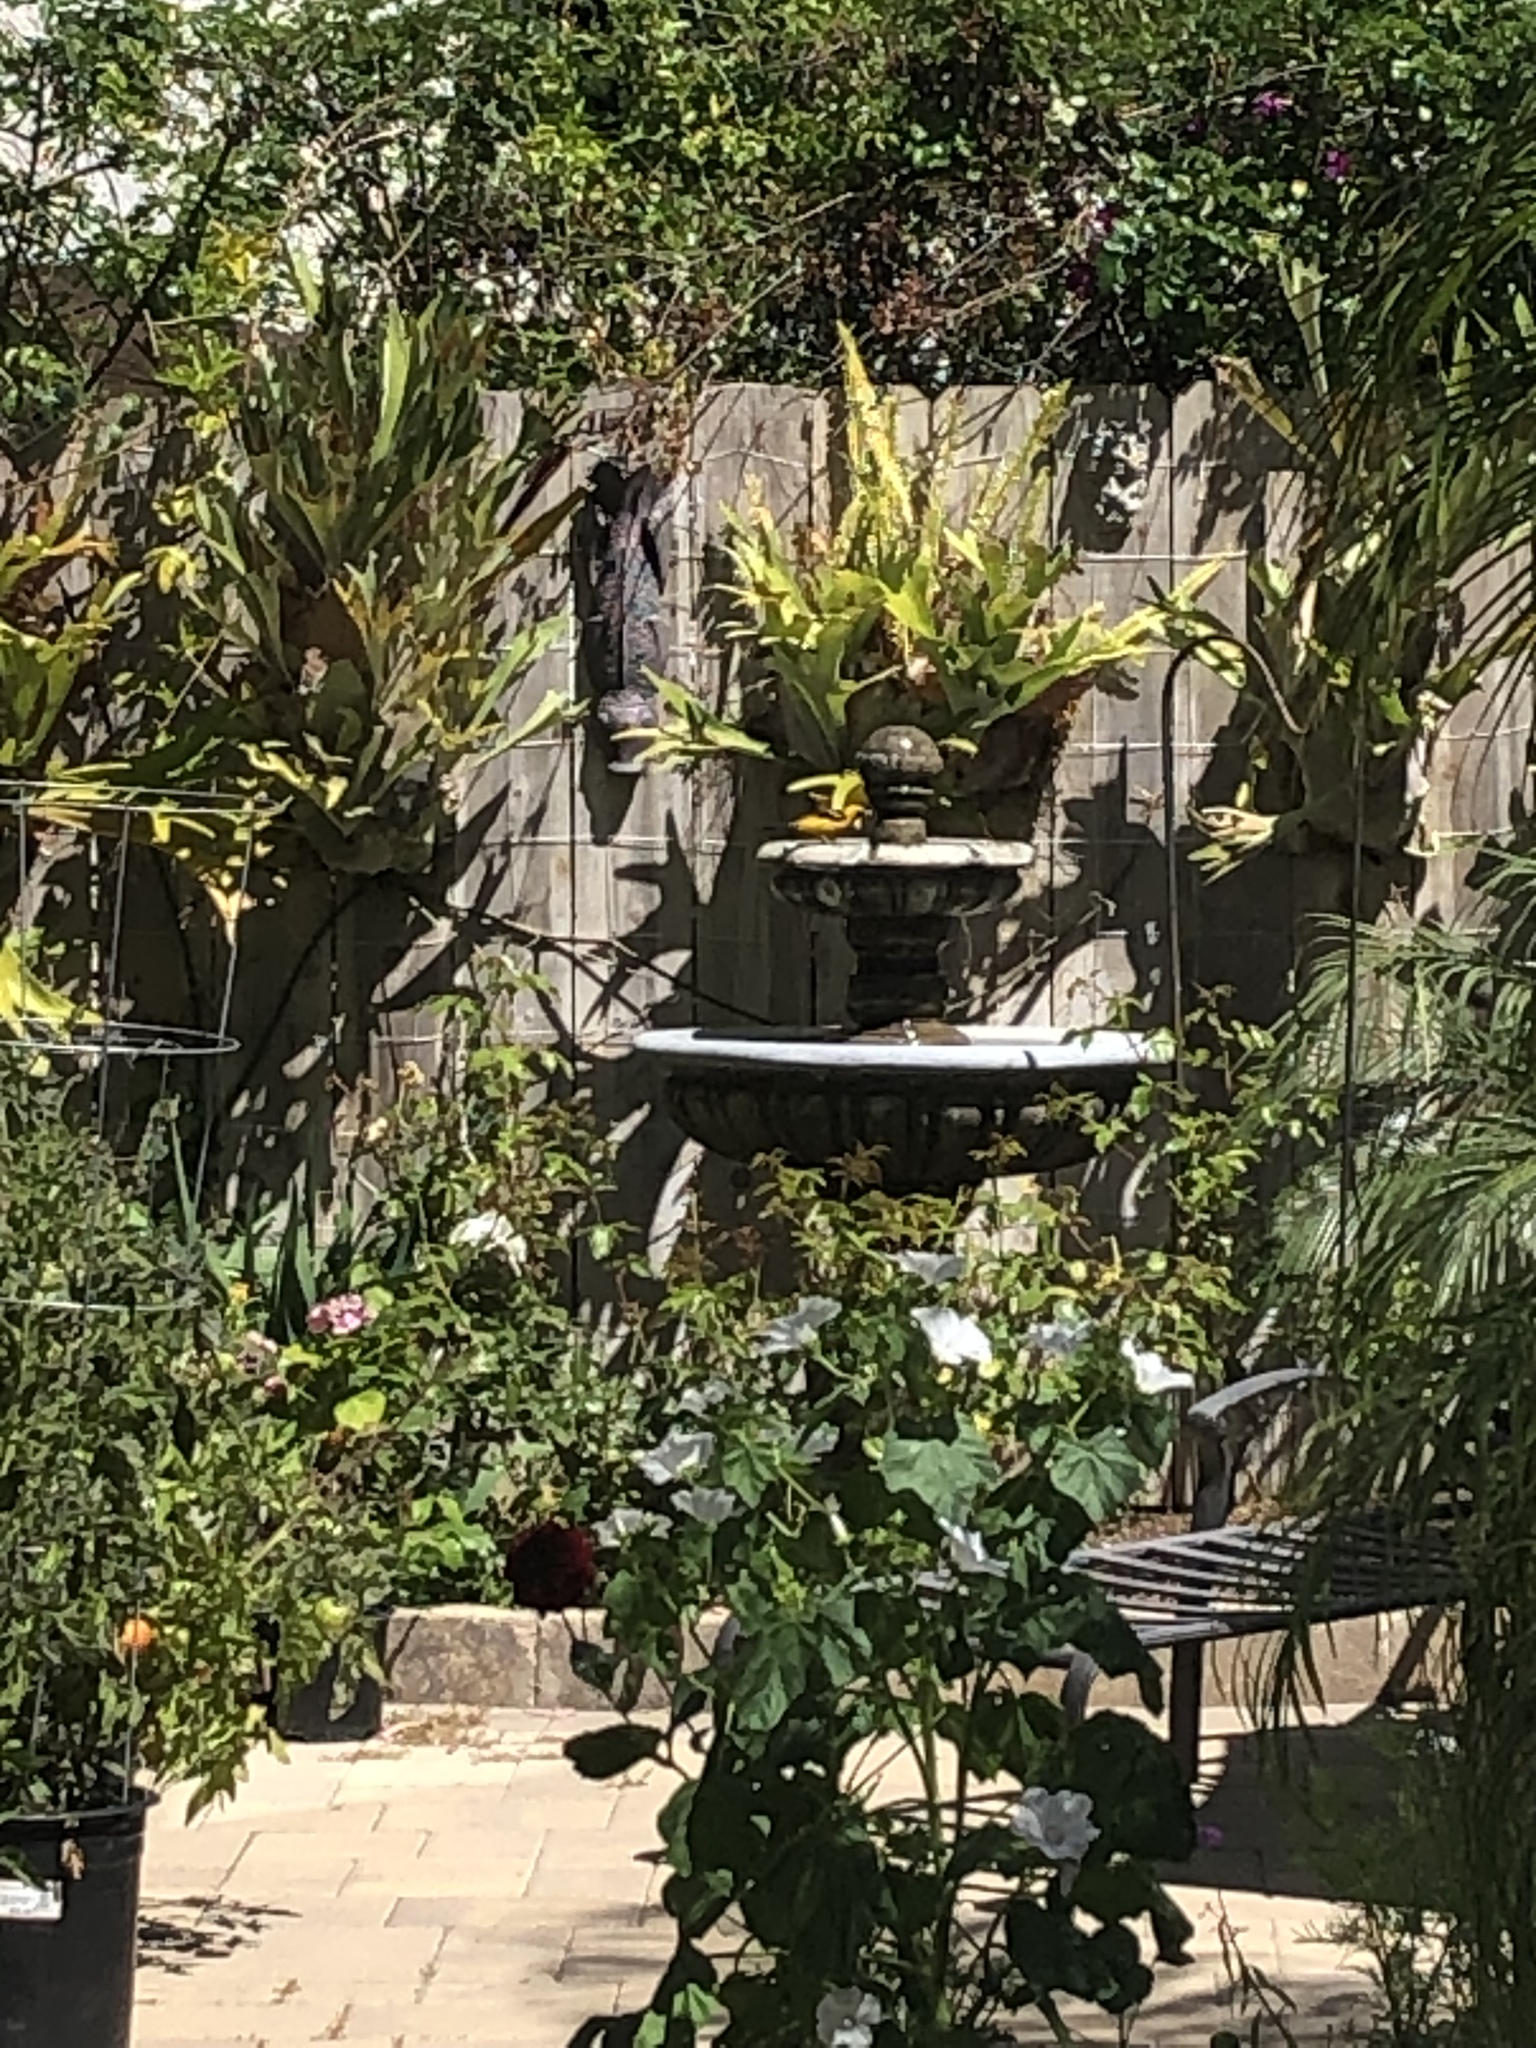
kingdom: Animalia
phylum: Chordata
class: Aves
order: Passeriformes
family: Icteridae
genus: Icterus
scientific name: Icterus cucullatus
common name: Hooded oriole
